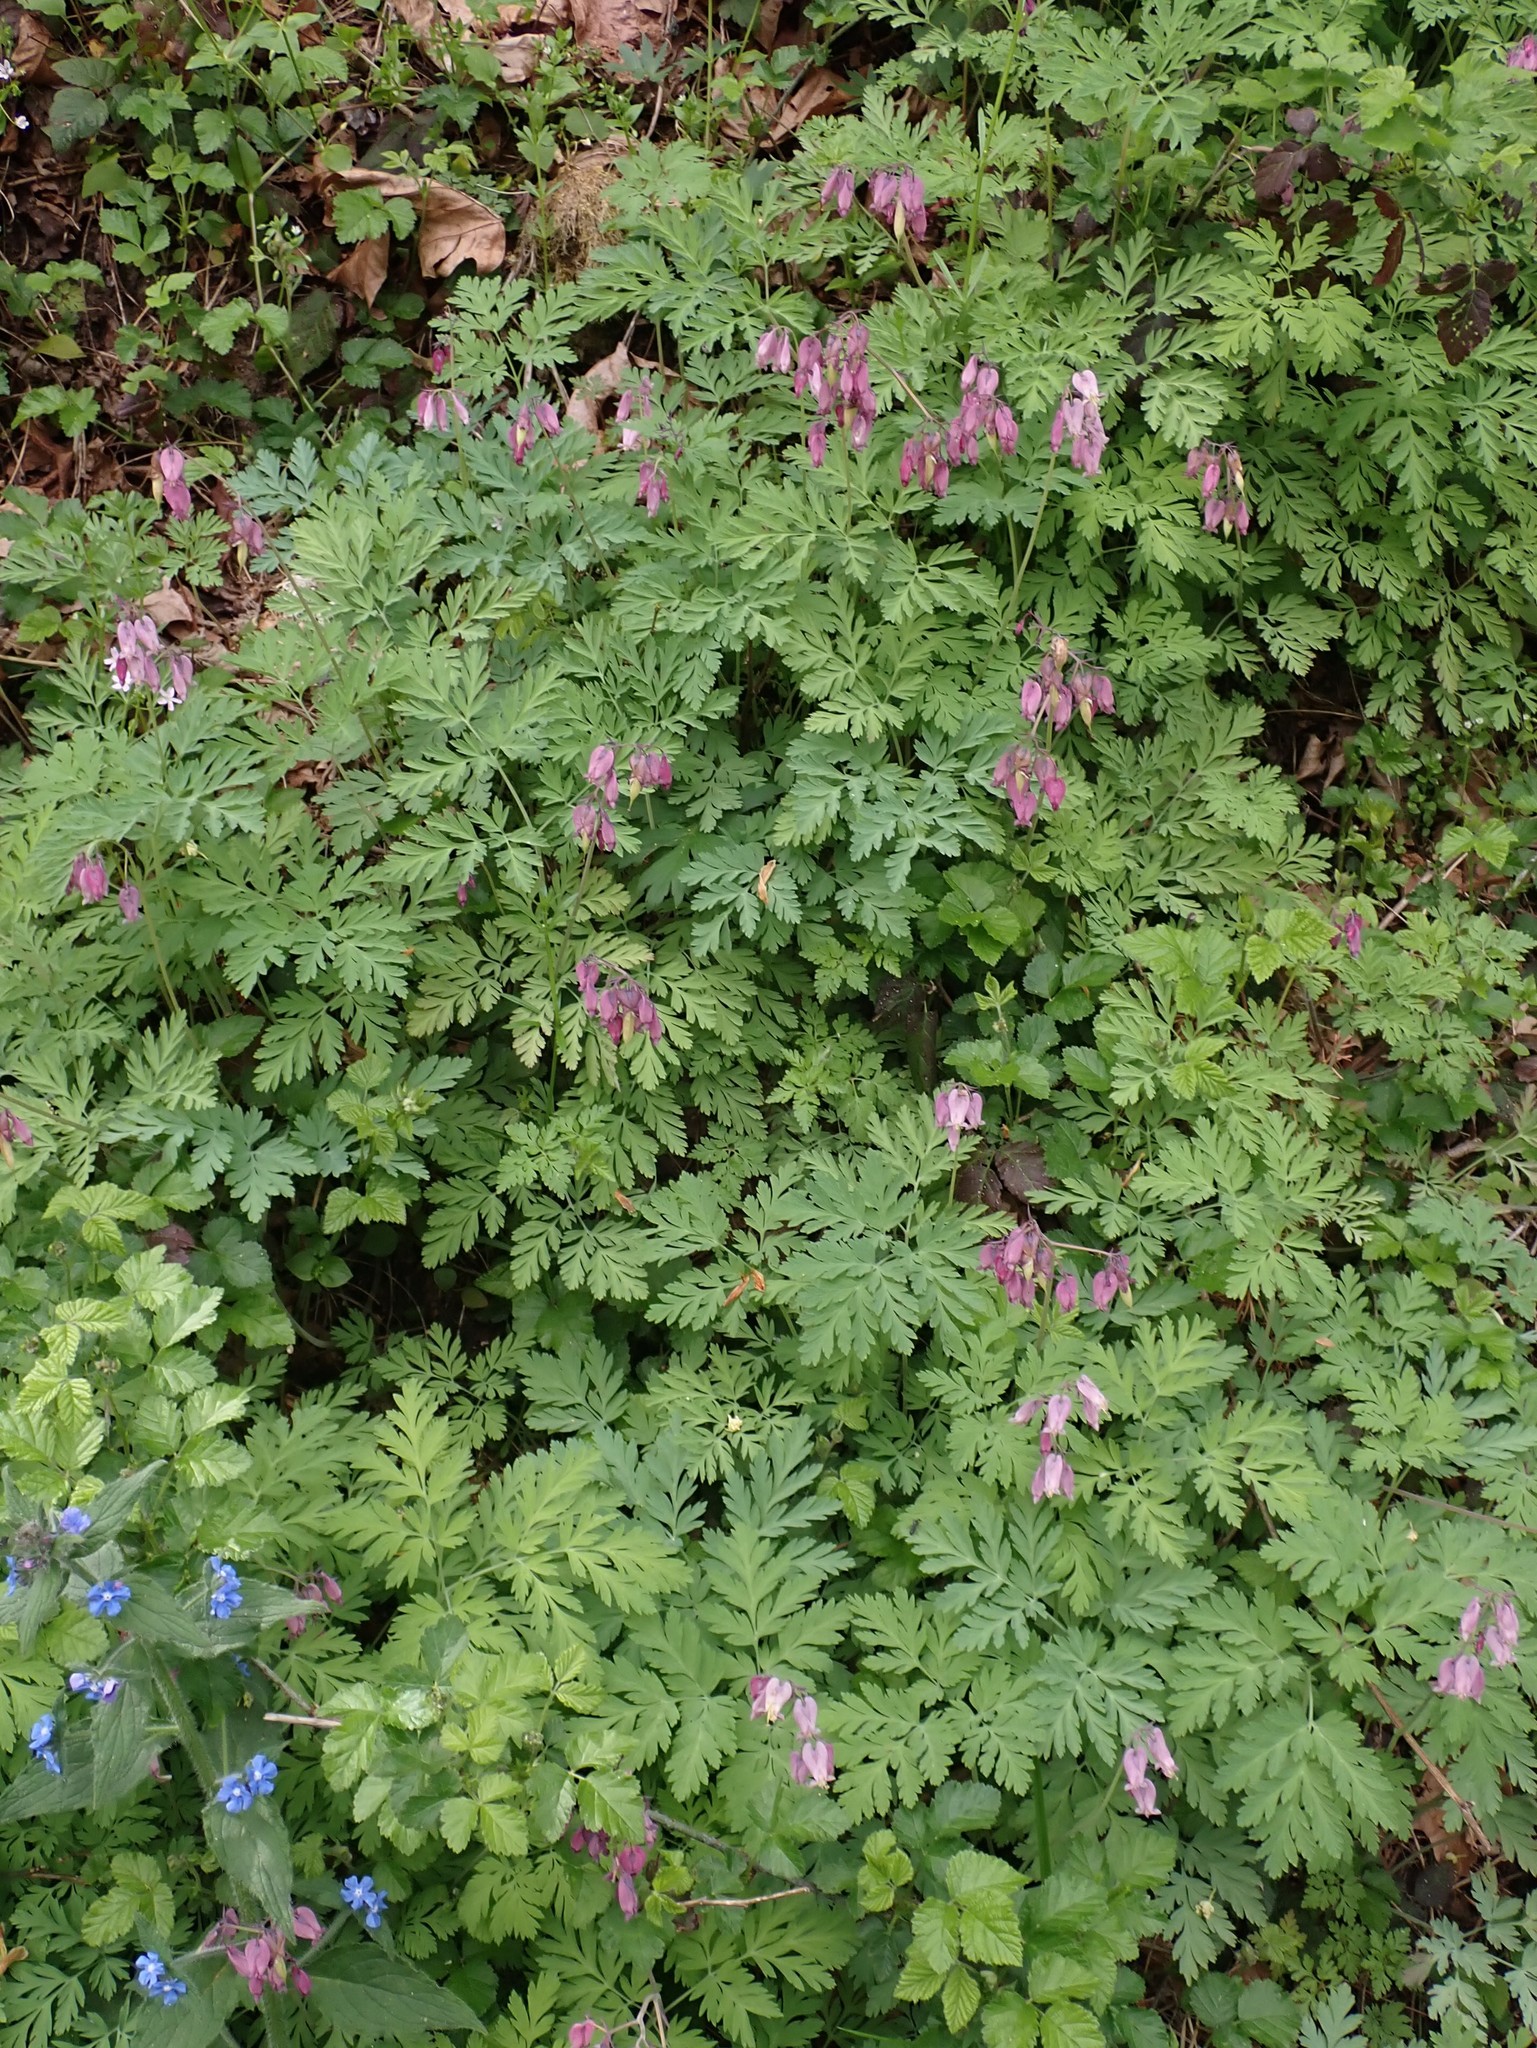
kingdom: Plantae
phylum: Tracheophyta
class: Magnoliopsida
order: Ranunculales
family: Papaveraceae
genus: Dicentra
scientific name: Dicentra formosa
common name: Bleeding-heart
